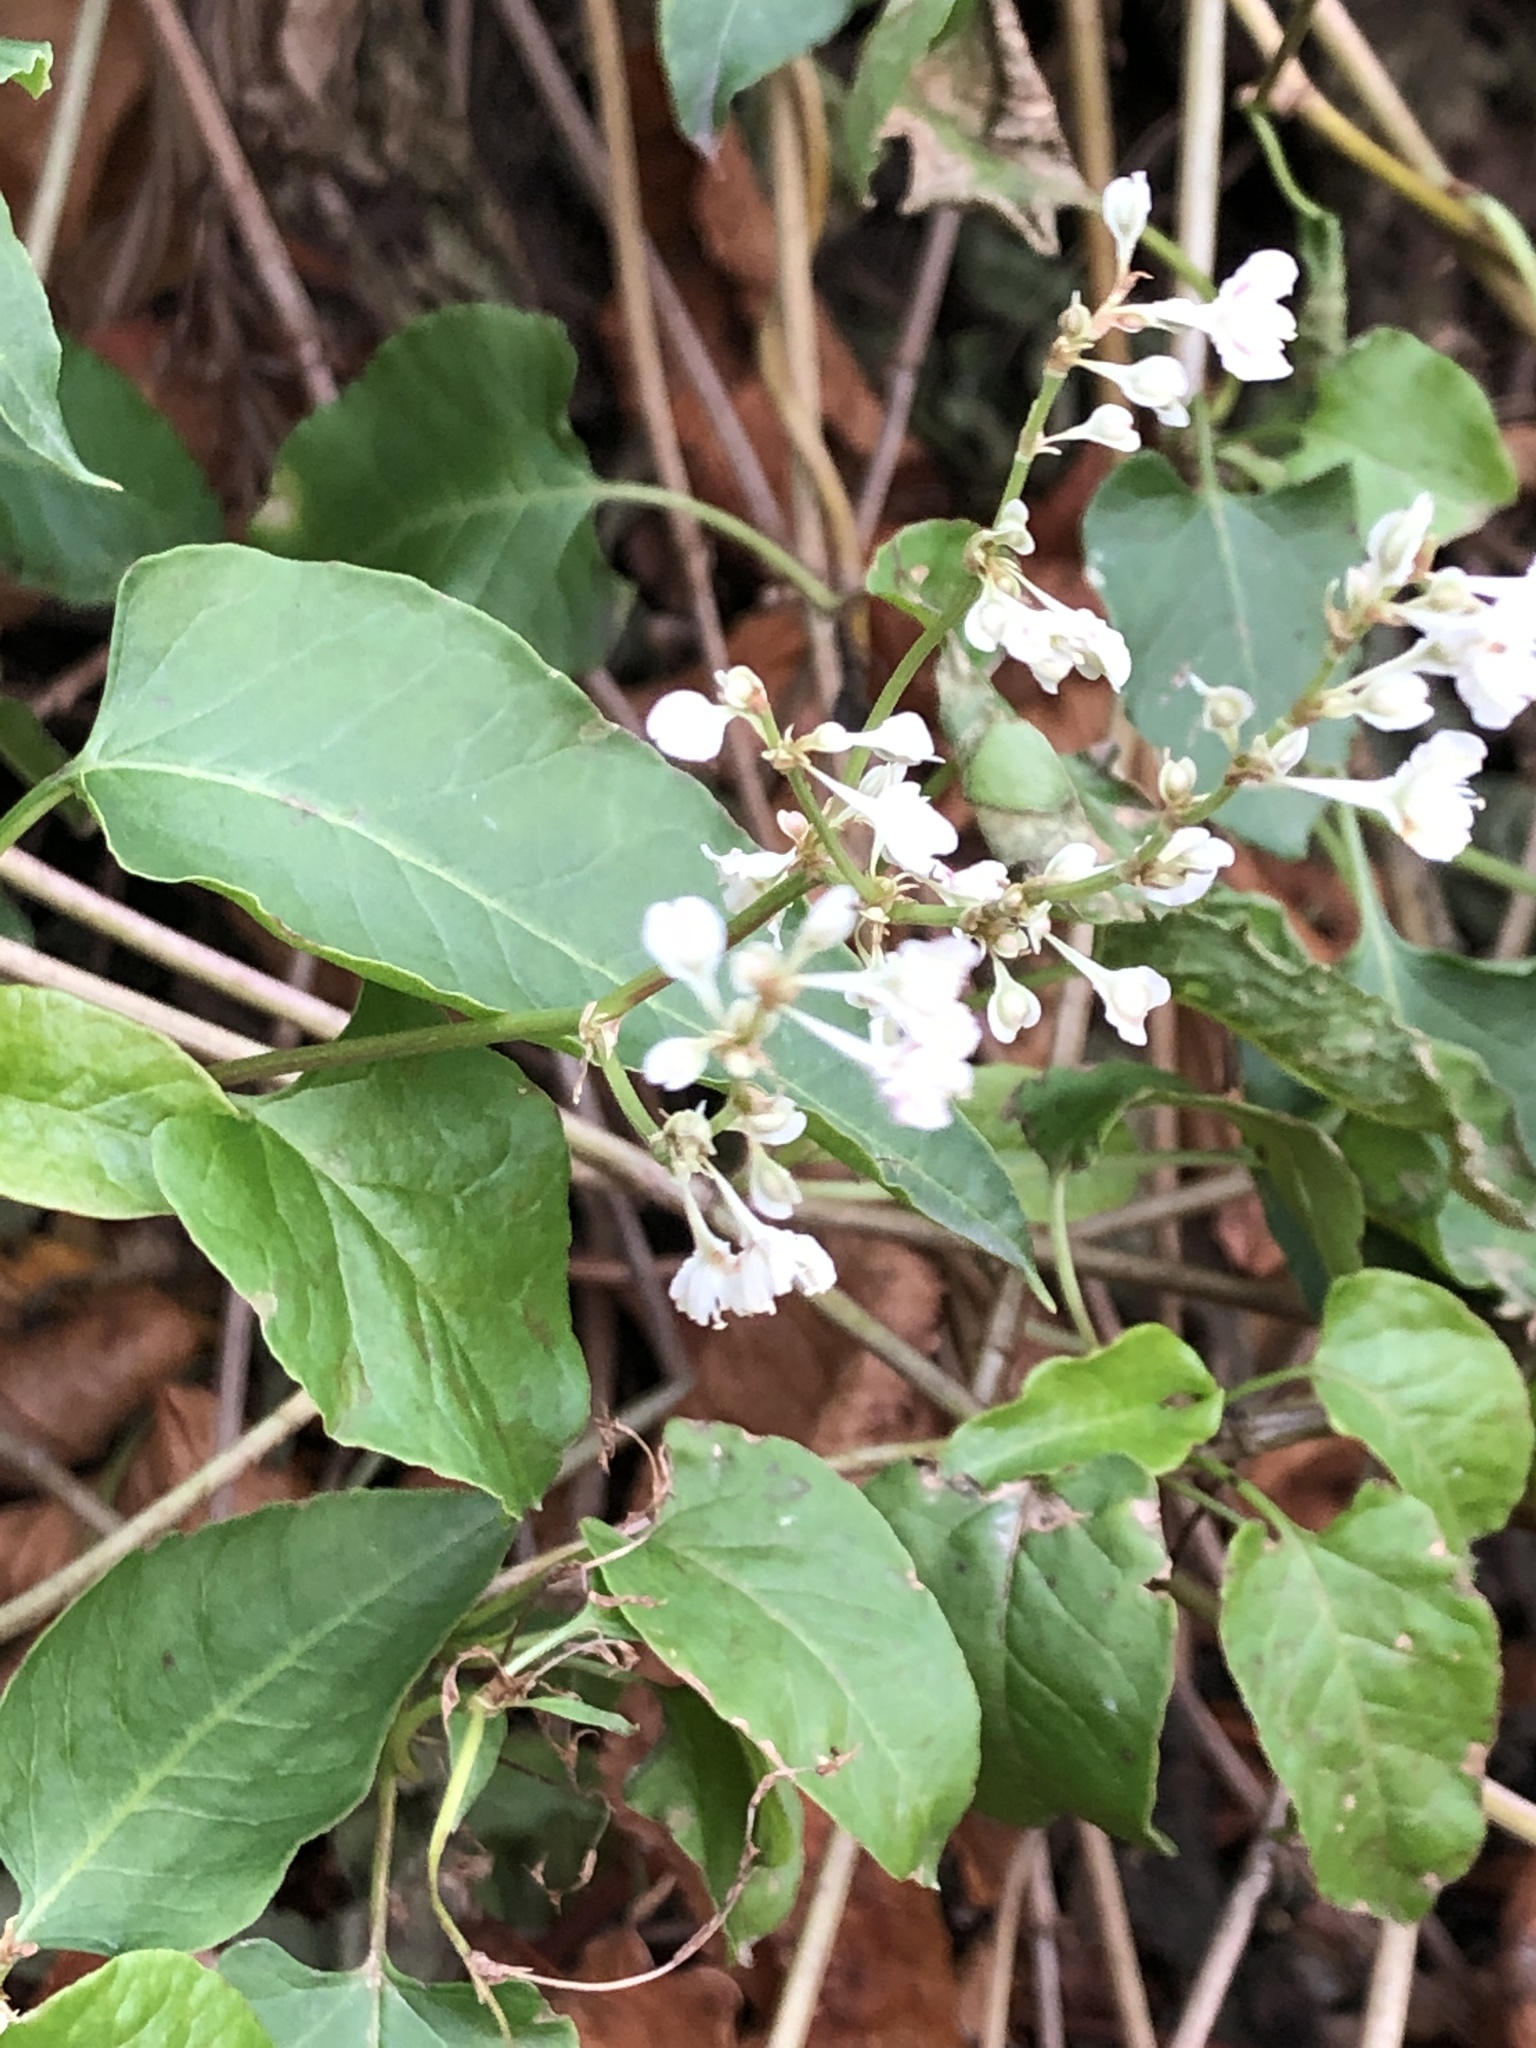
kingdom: Plantae
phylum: Tracheophyta
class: Magnoliopsida
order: Caryophyllales
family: Polygonaceae
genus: Fallopia
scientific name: Fallopia baldschuanica
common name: Russian-vine
